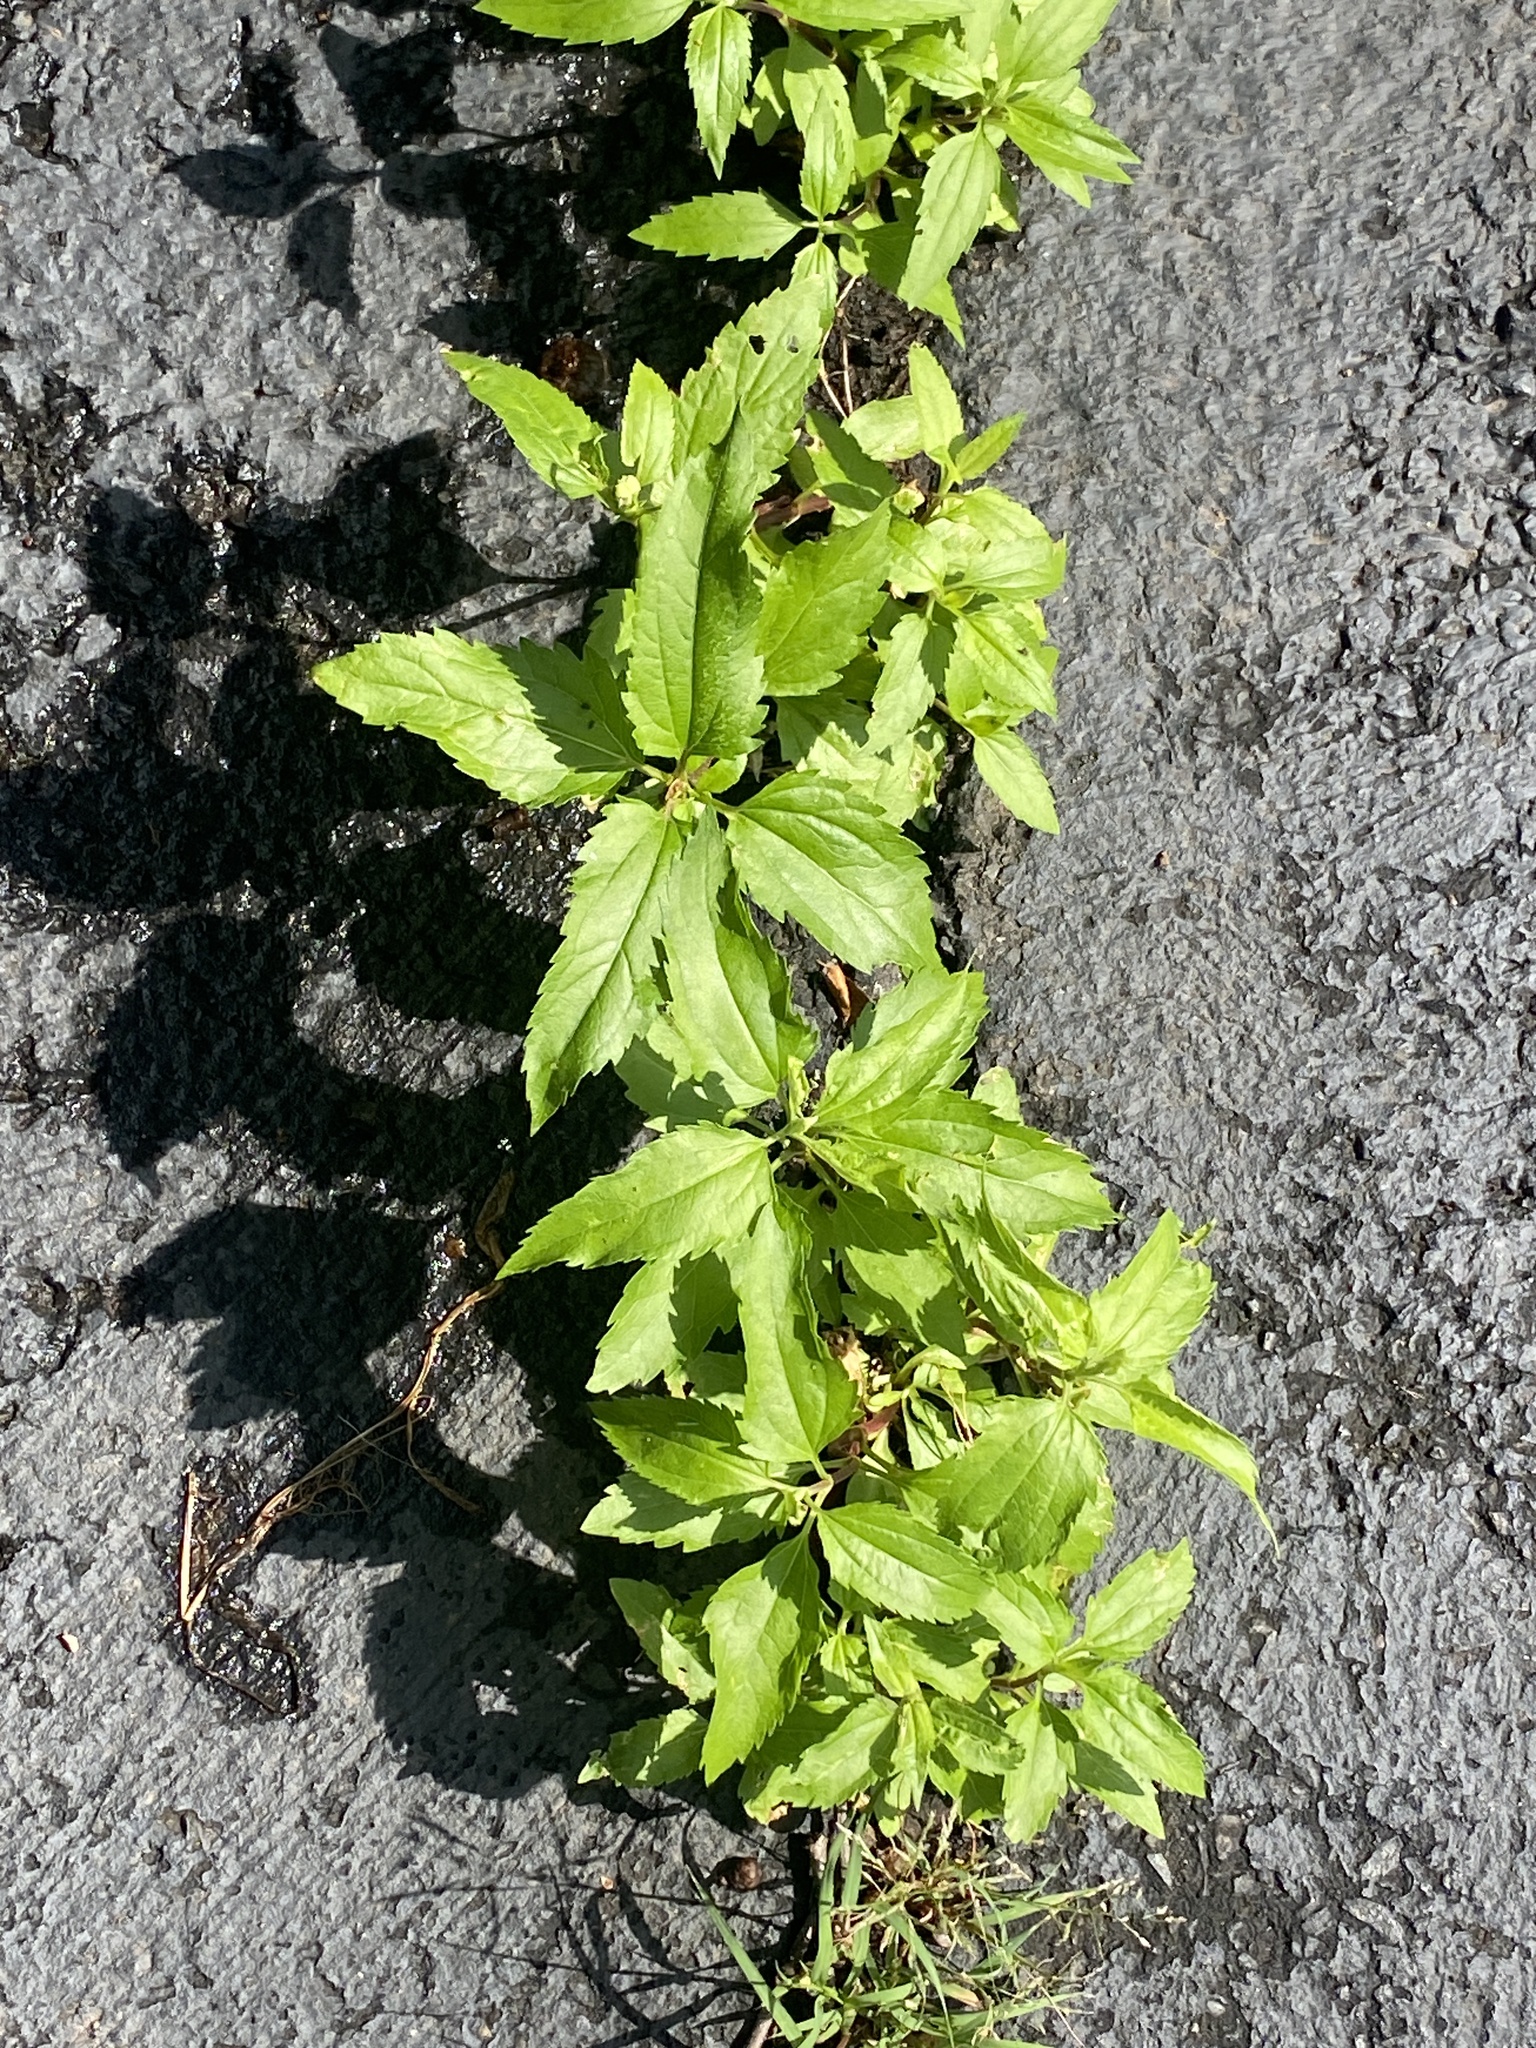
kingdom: Plantae
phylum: Tracheophyta
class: Magnoliopsida
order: Asterales
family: Asteraceae
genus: Eupatorium
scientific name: Eupatorium serotinum
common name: Late boneset
